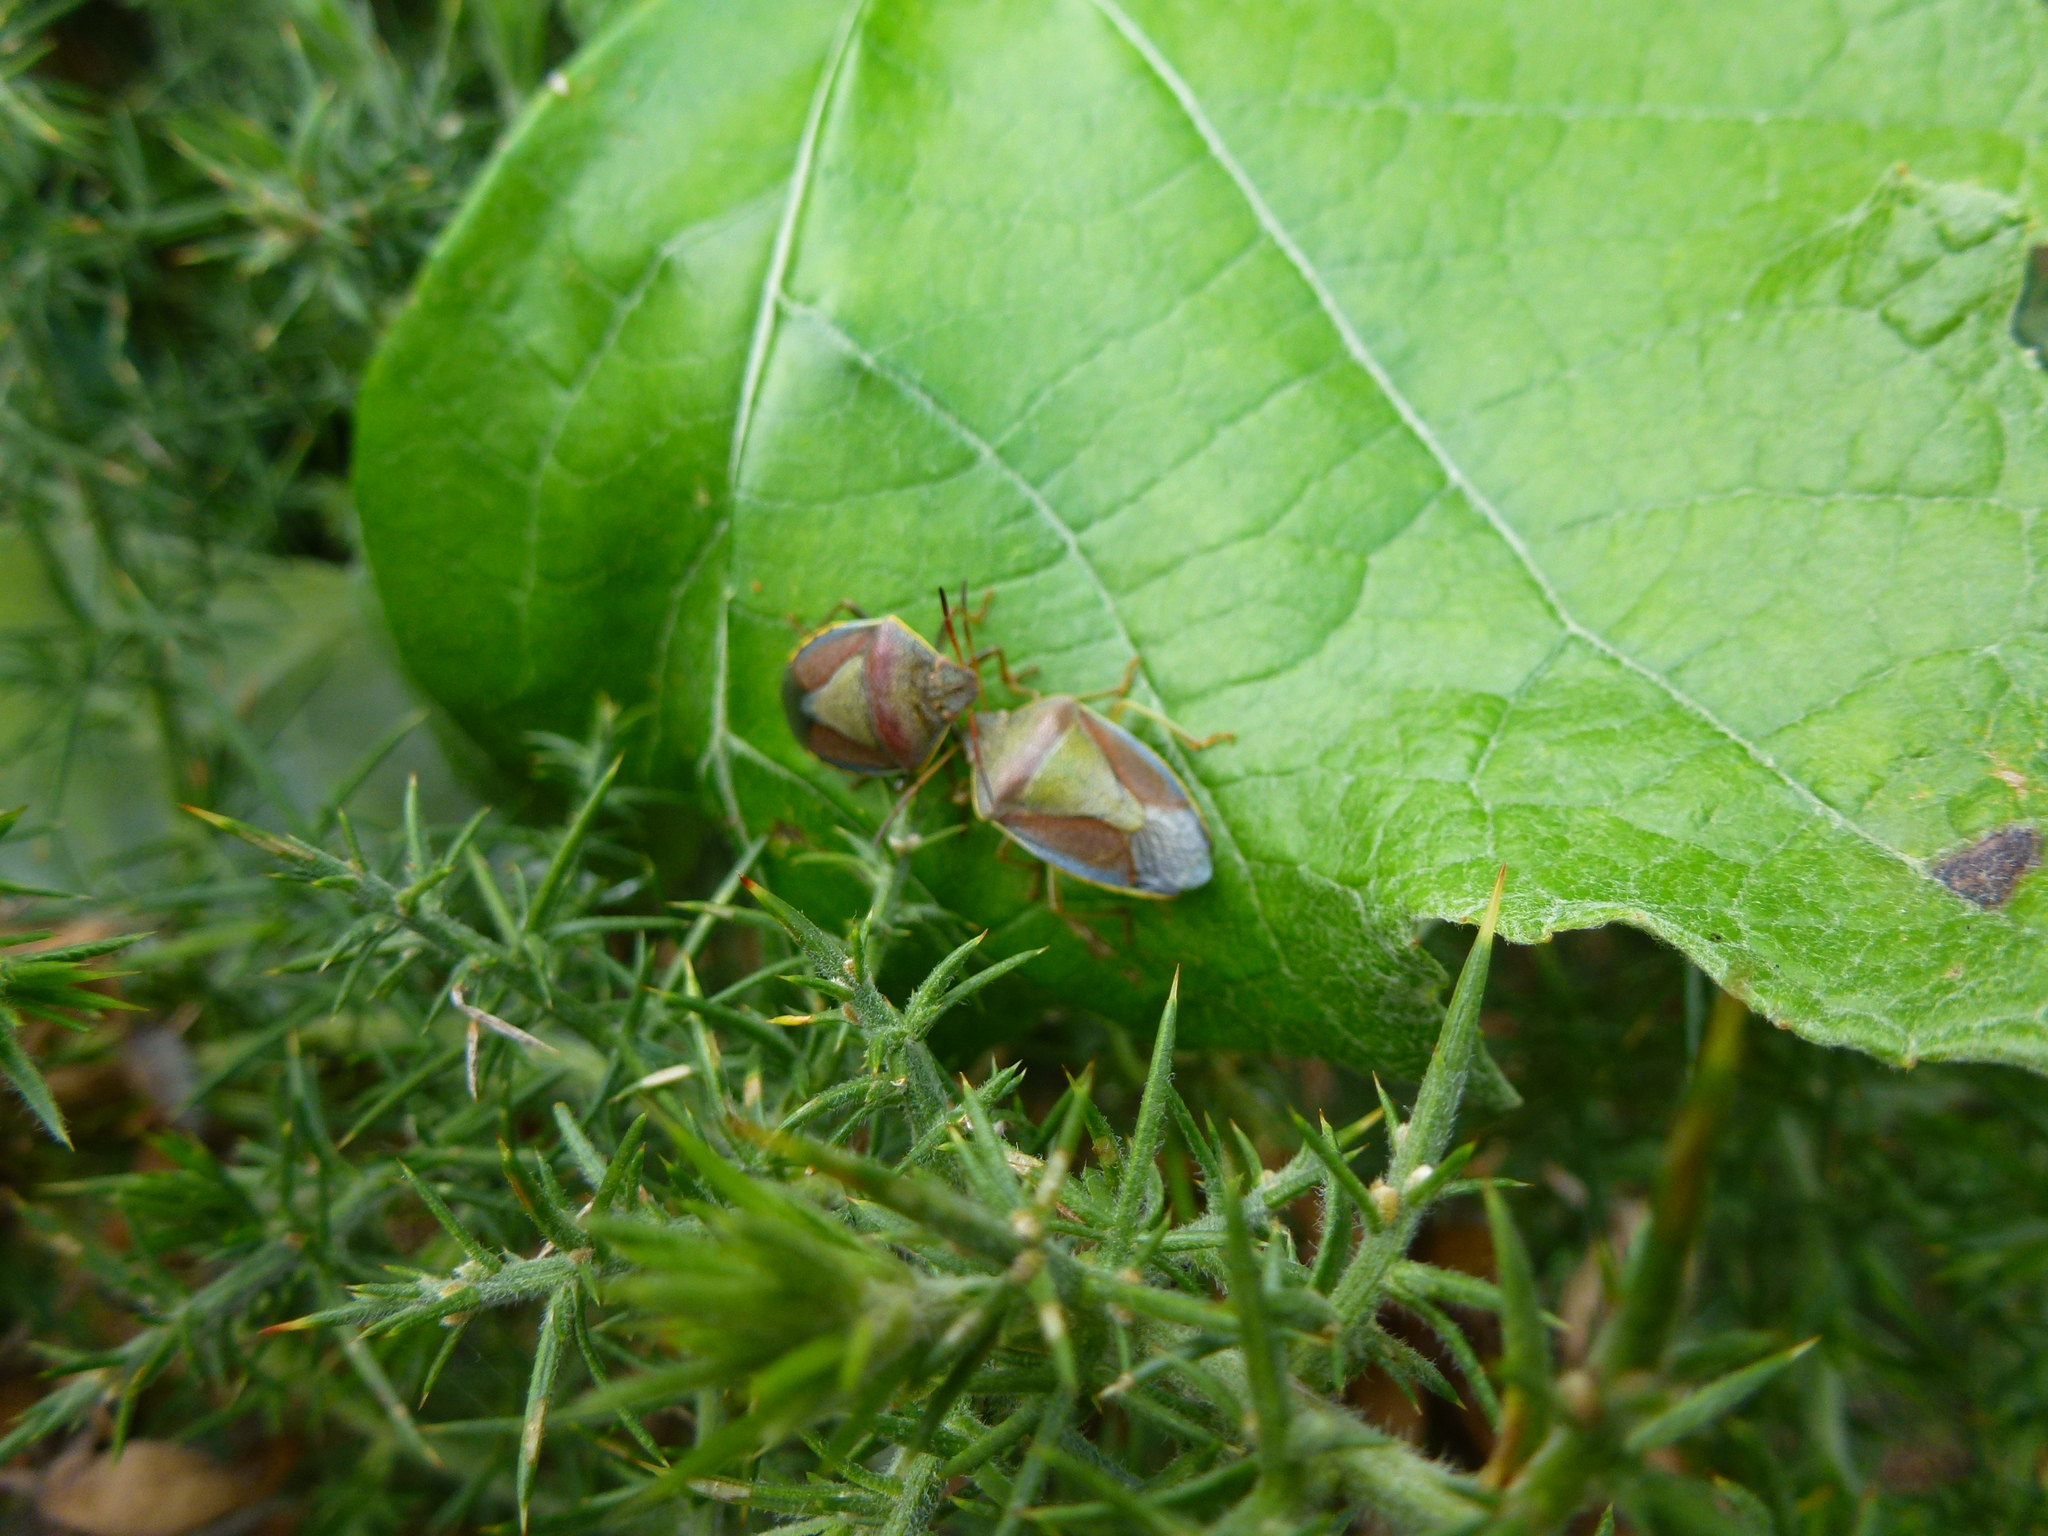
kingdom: Animalia
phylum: Arthropoda
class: Insecta
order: Hemiptera
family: Pentatomidae
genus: Piezodorus
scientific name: Piezodorus lituratus
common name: Stink bug
